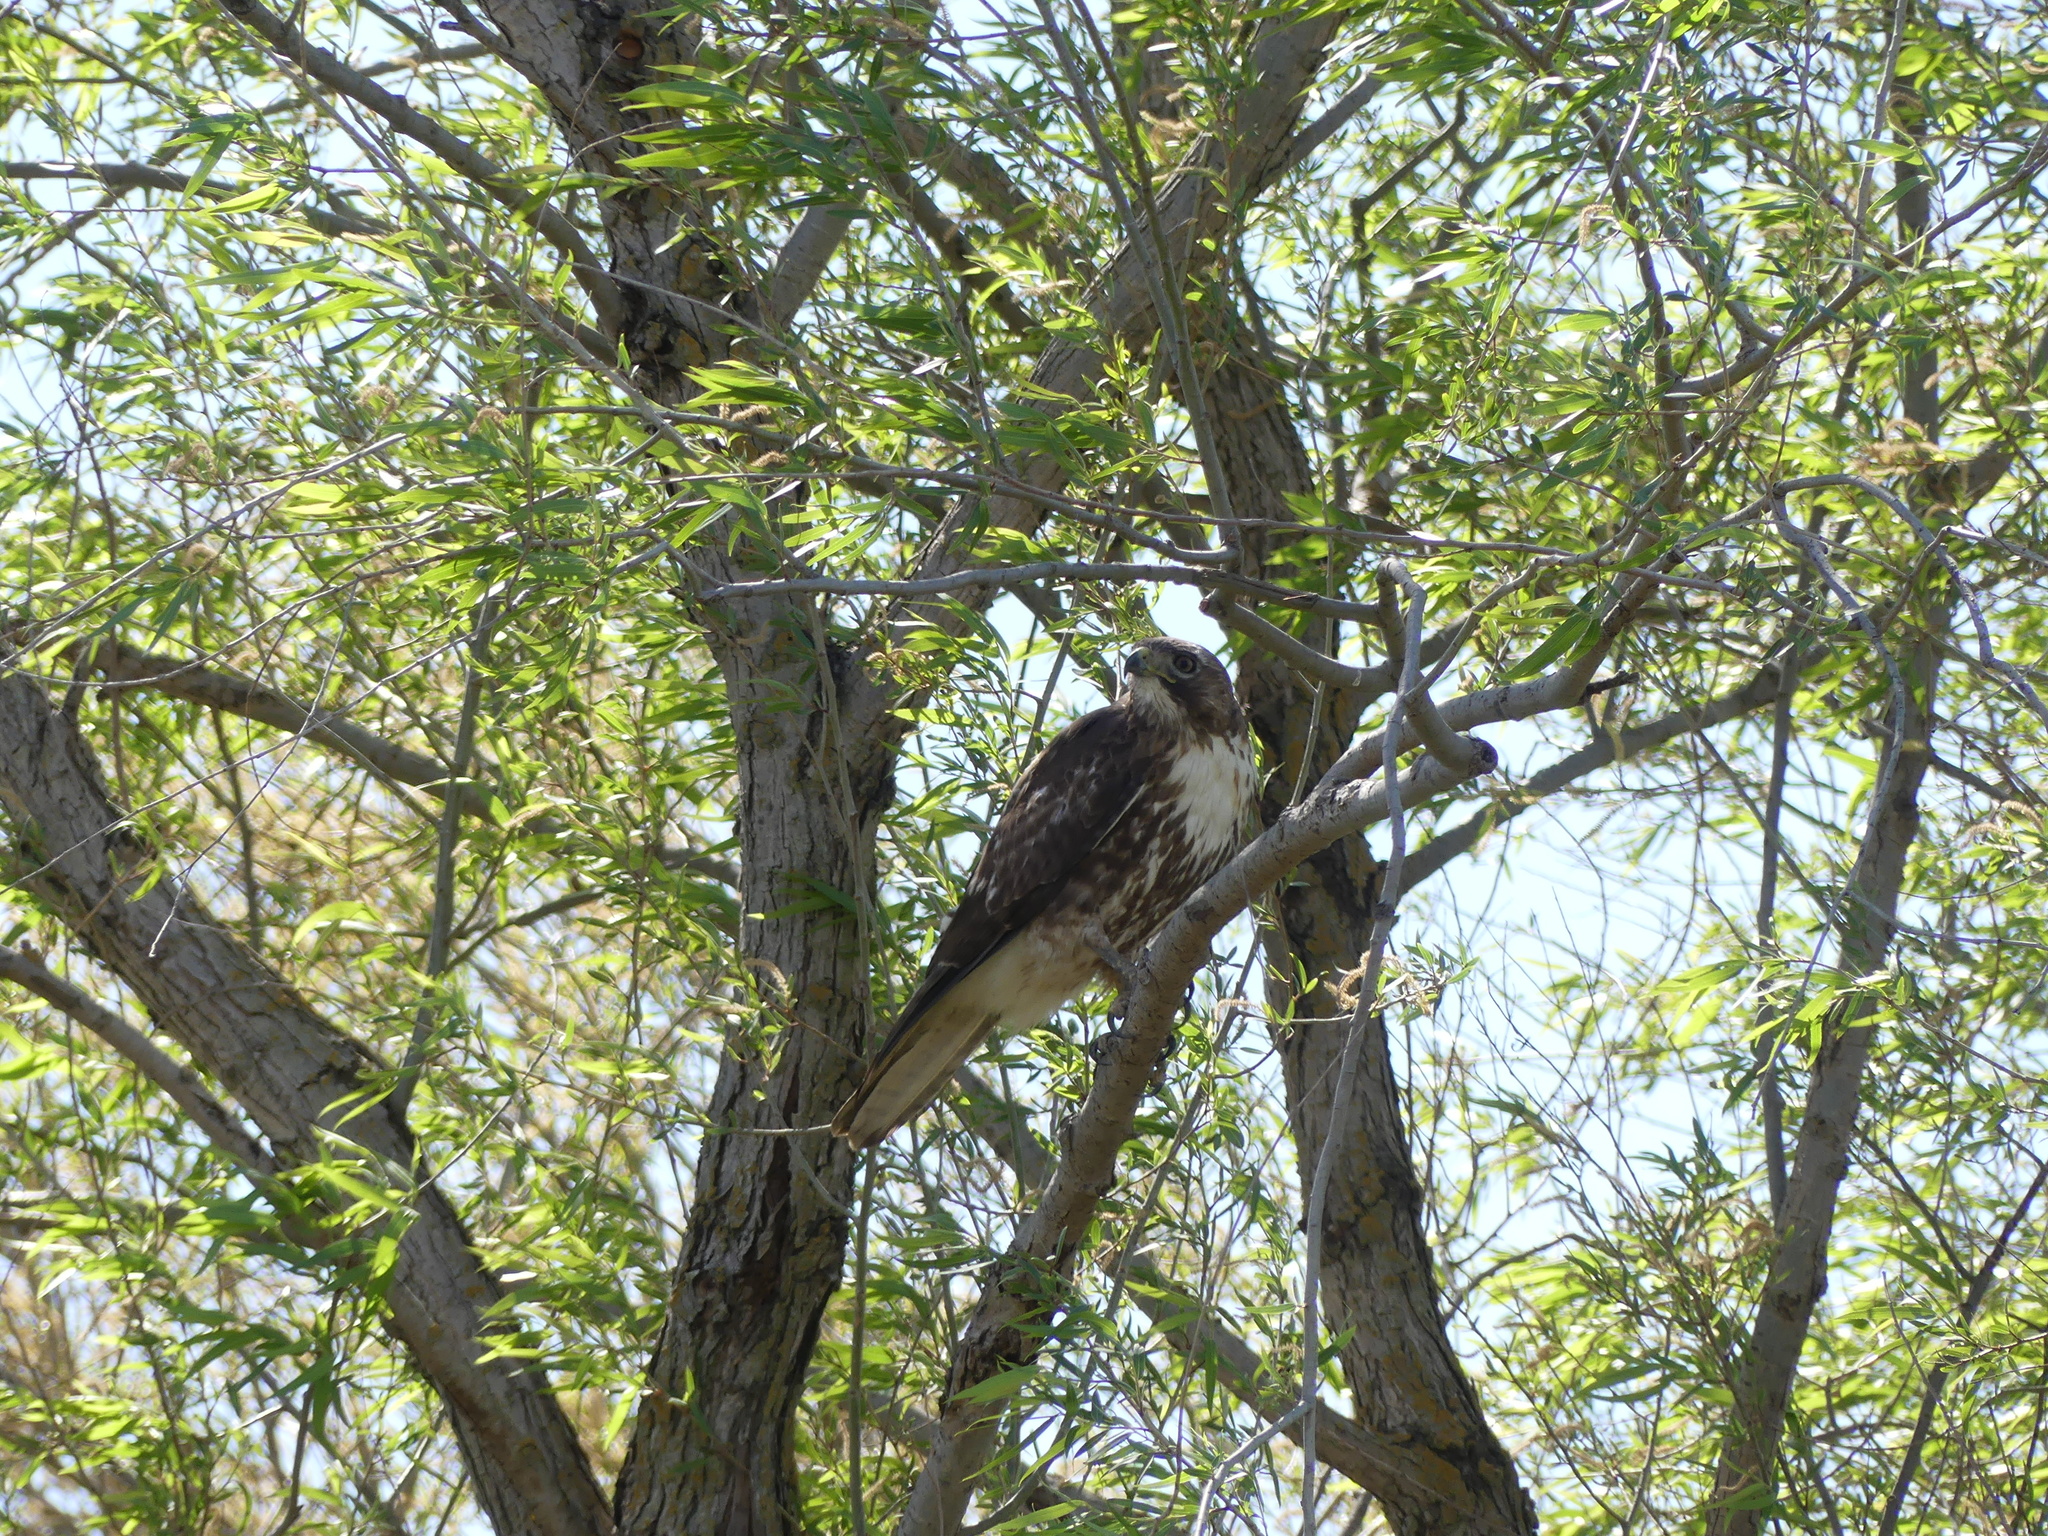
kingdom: Animalia
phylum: Chordata
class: Aves
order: Accipitriformes
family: Accipitridae
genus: Buteo
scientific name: Buteo jamaicensis
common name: Red-tailed hawk
